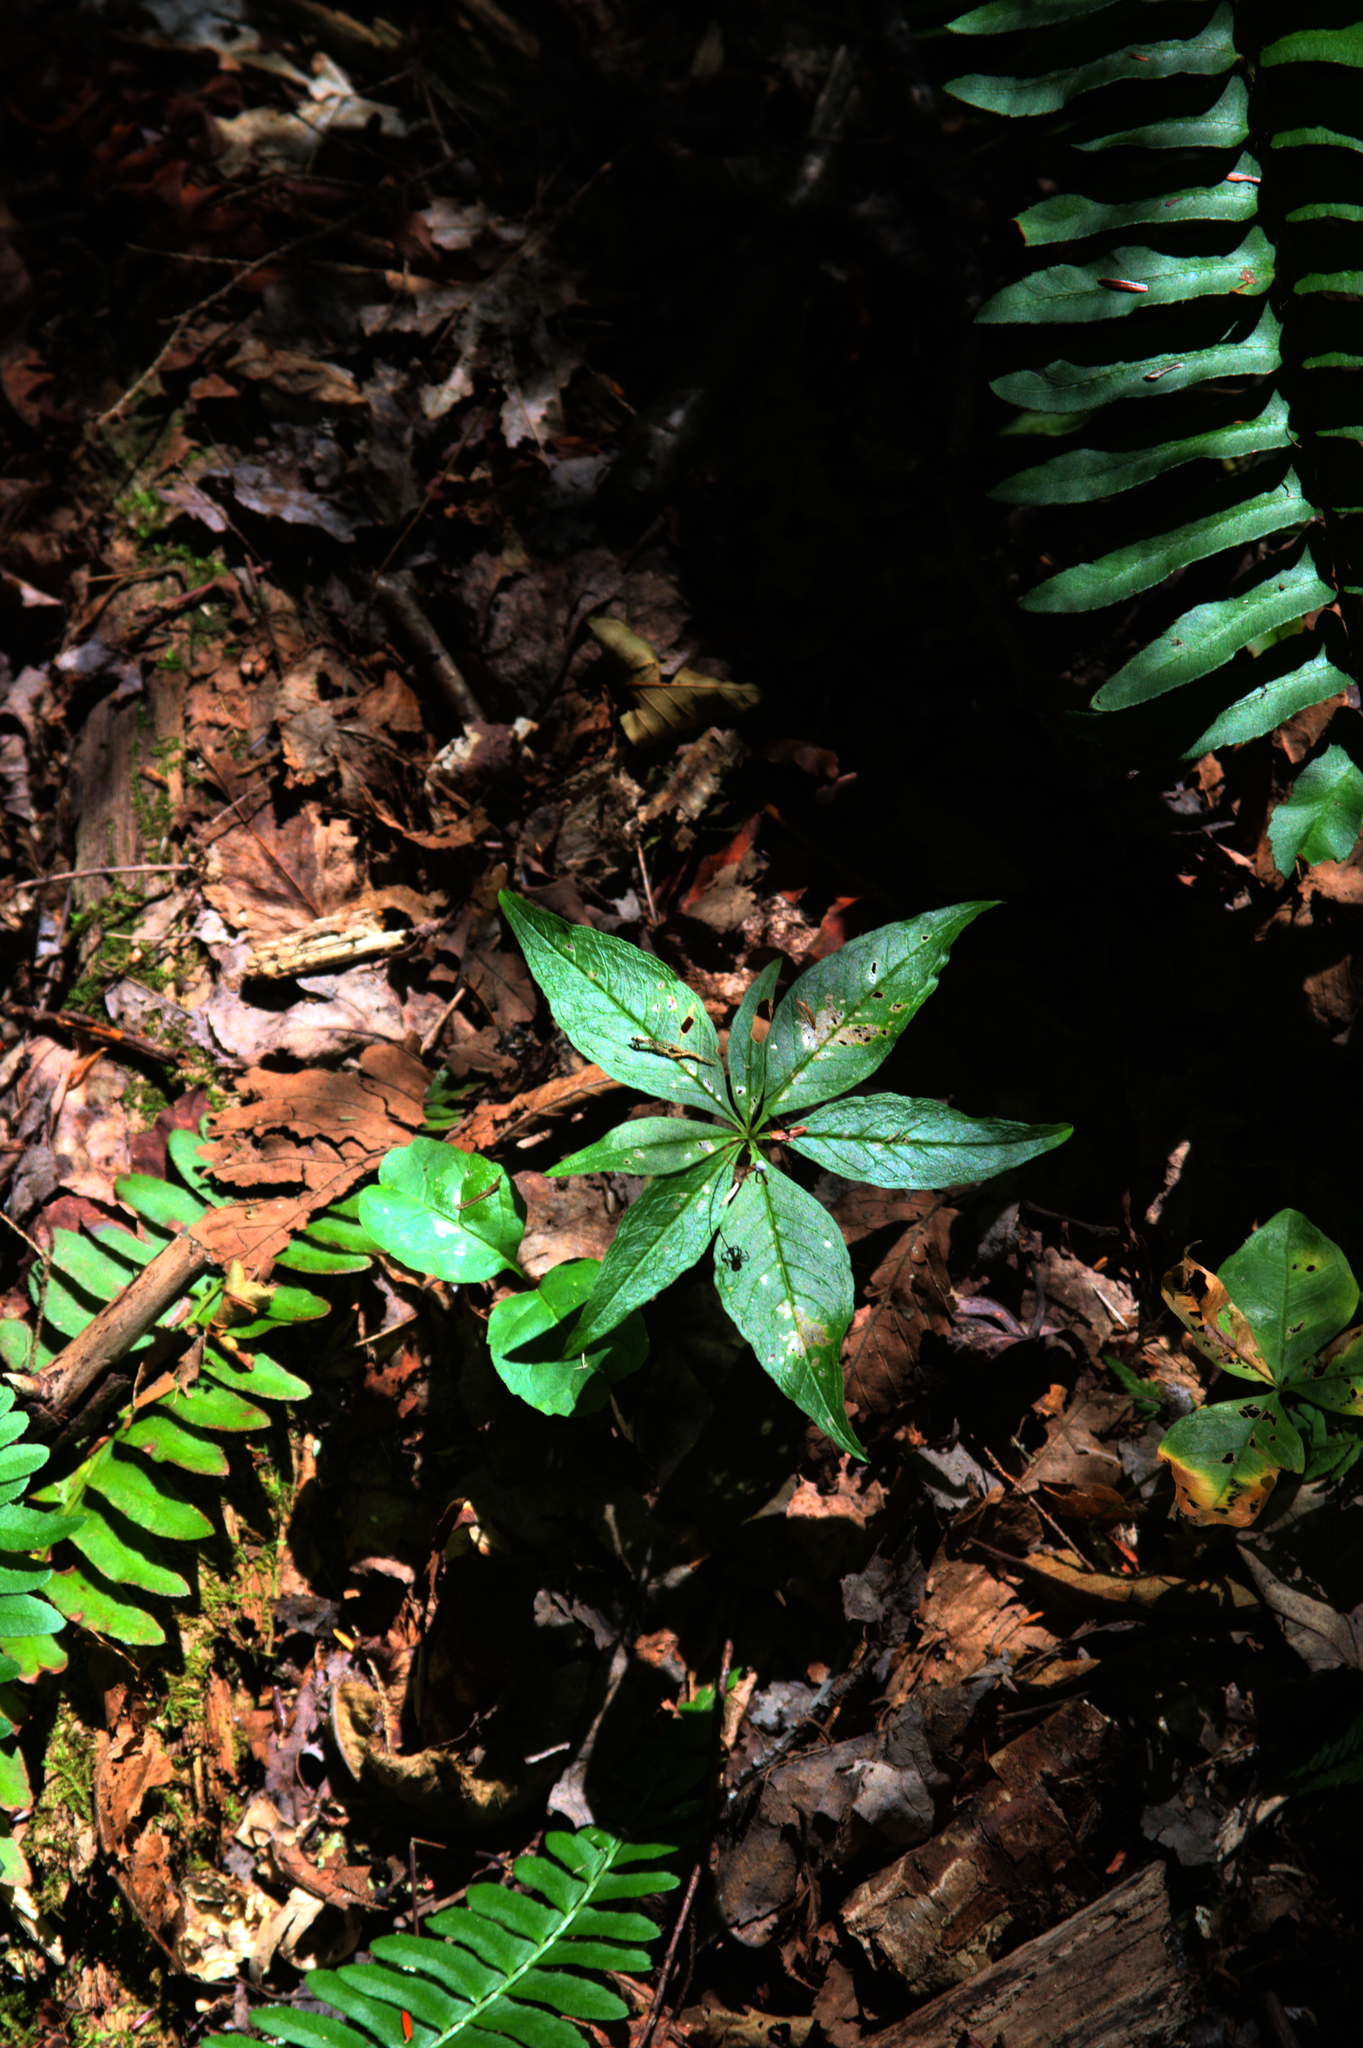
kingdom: Plantae
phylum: Tracheophyta
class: Magnoliopsida
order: Ericales
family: Primulaceae
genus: Lysimachia
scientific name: Lysimachia borealis
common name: American starflower
